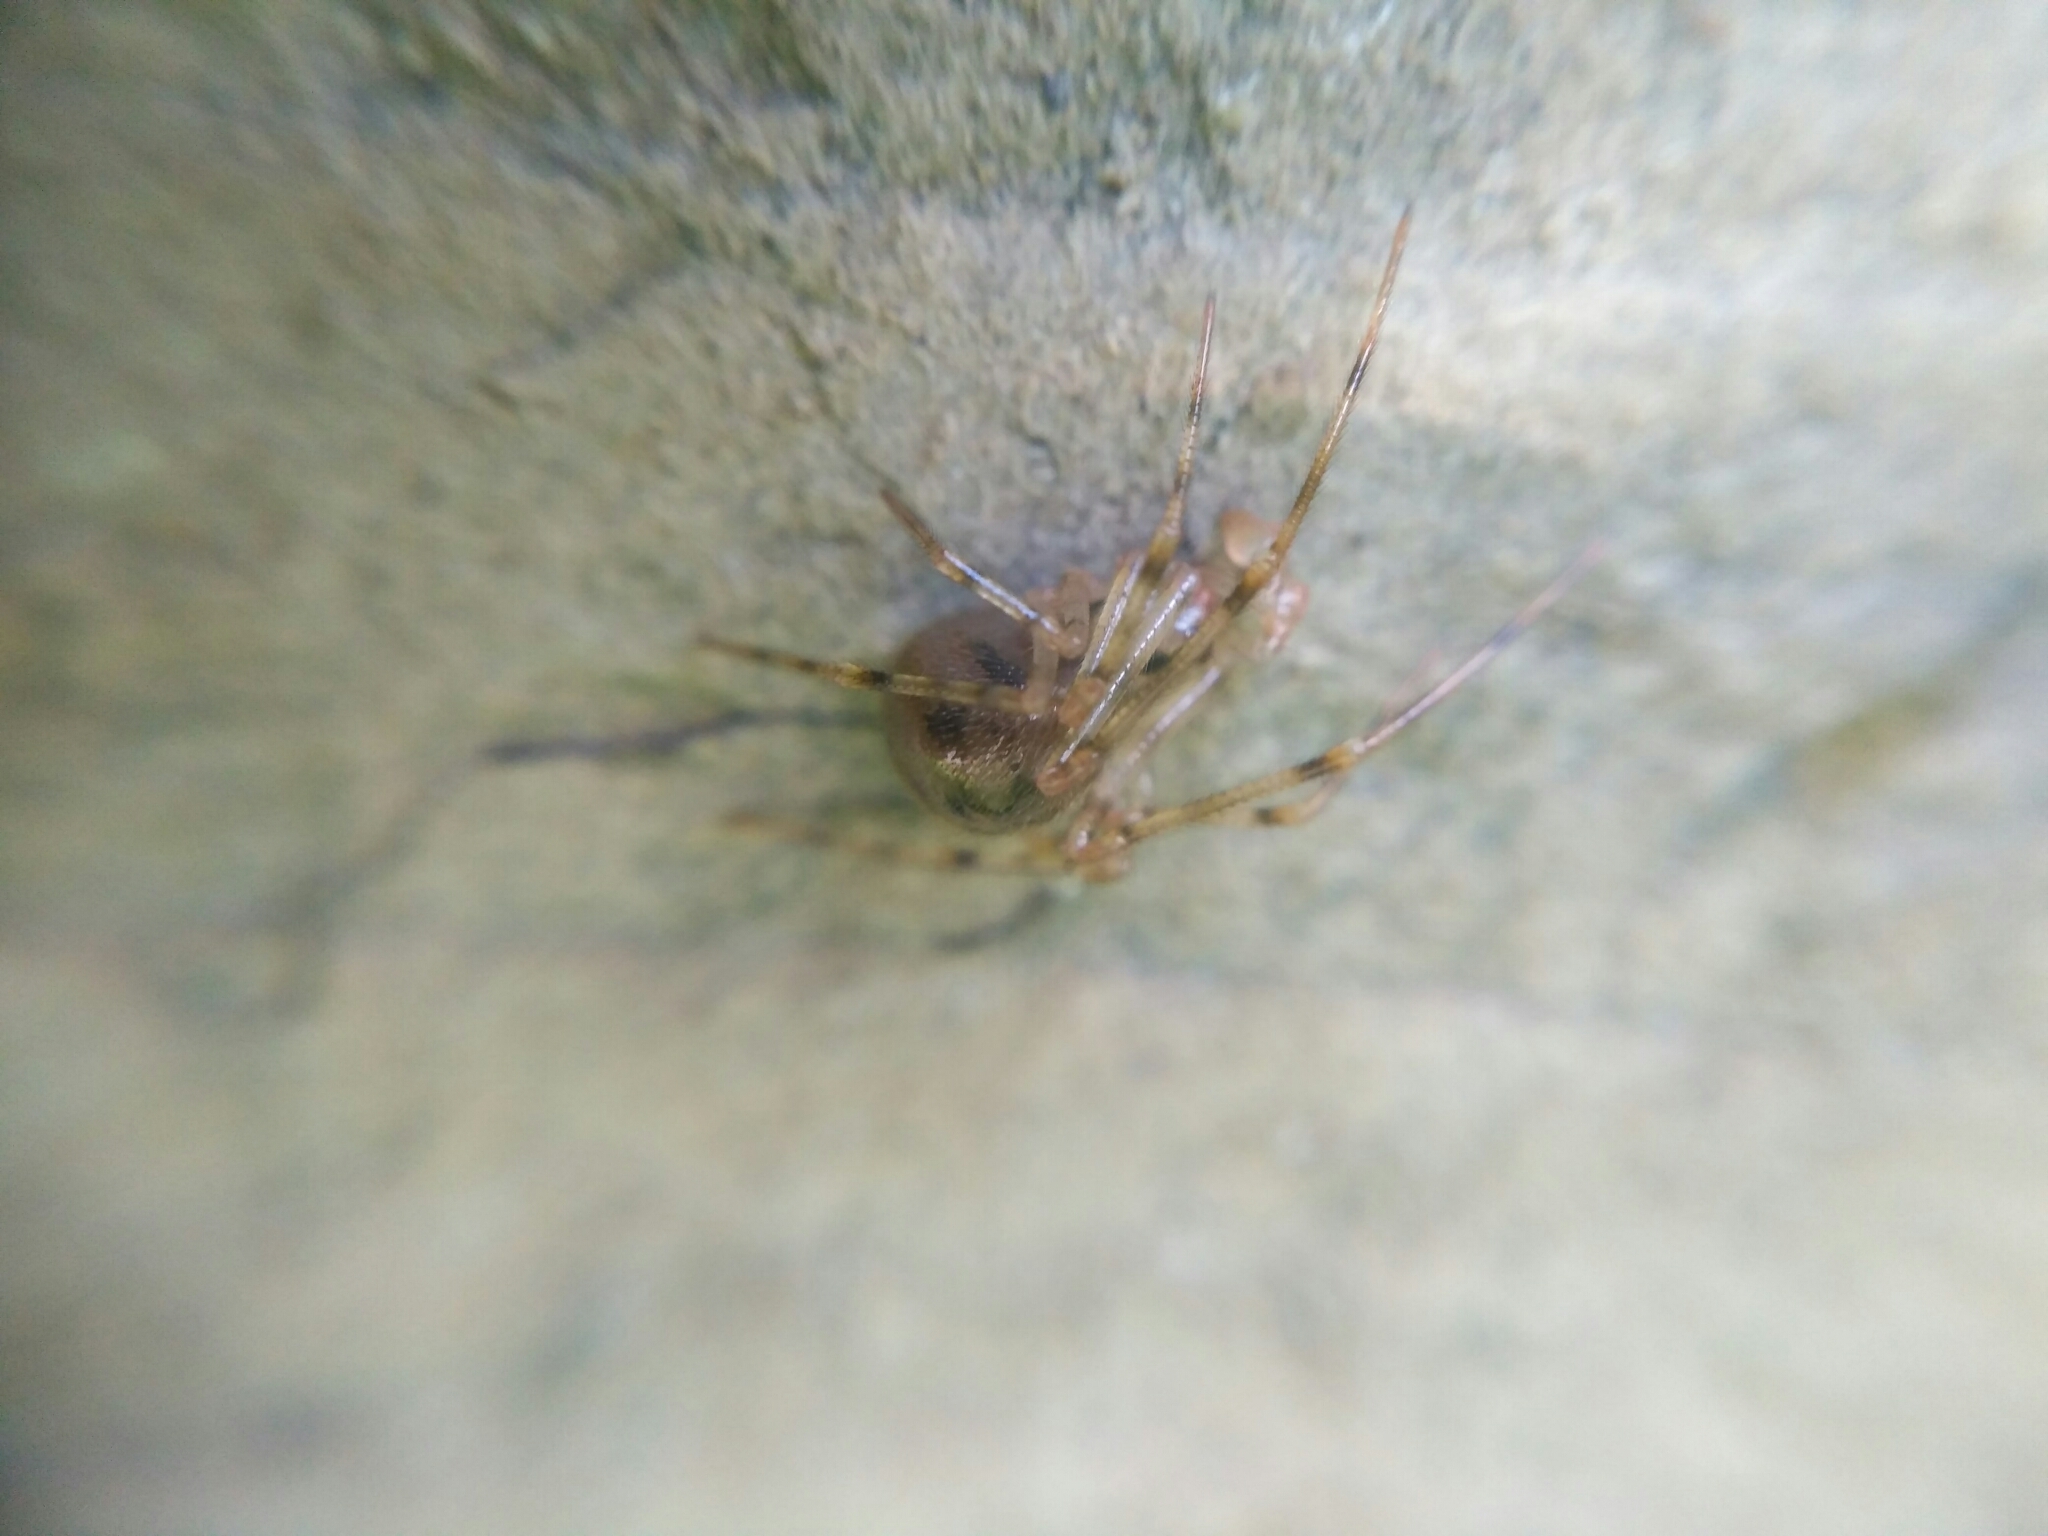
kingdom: Animalia
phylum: Arthropoda
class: Arachnida
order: Araneae
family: Nesticidae
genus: Nesticus
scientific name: Nesticus cellulanus
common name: Comb-footed cellar spider
